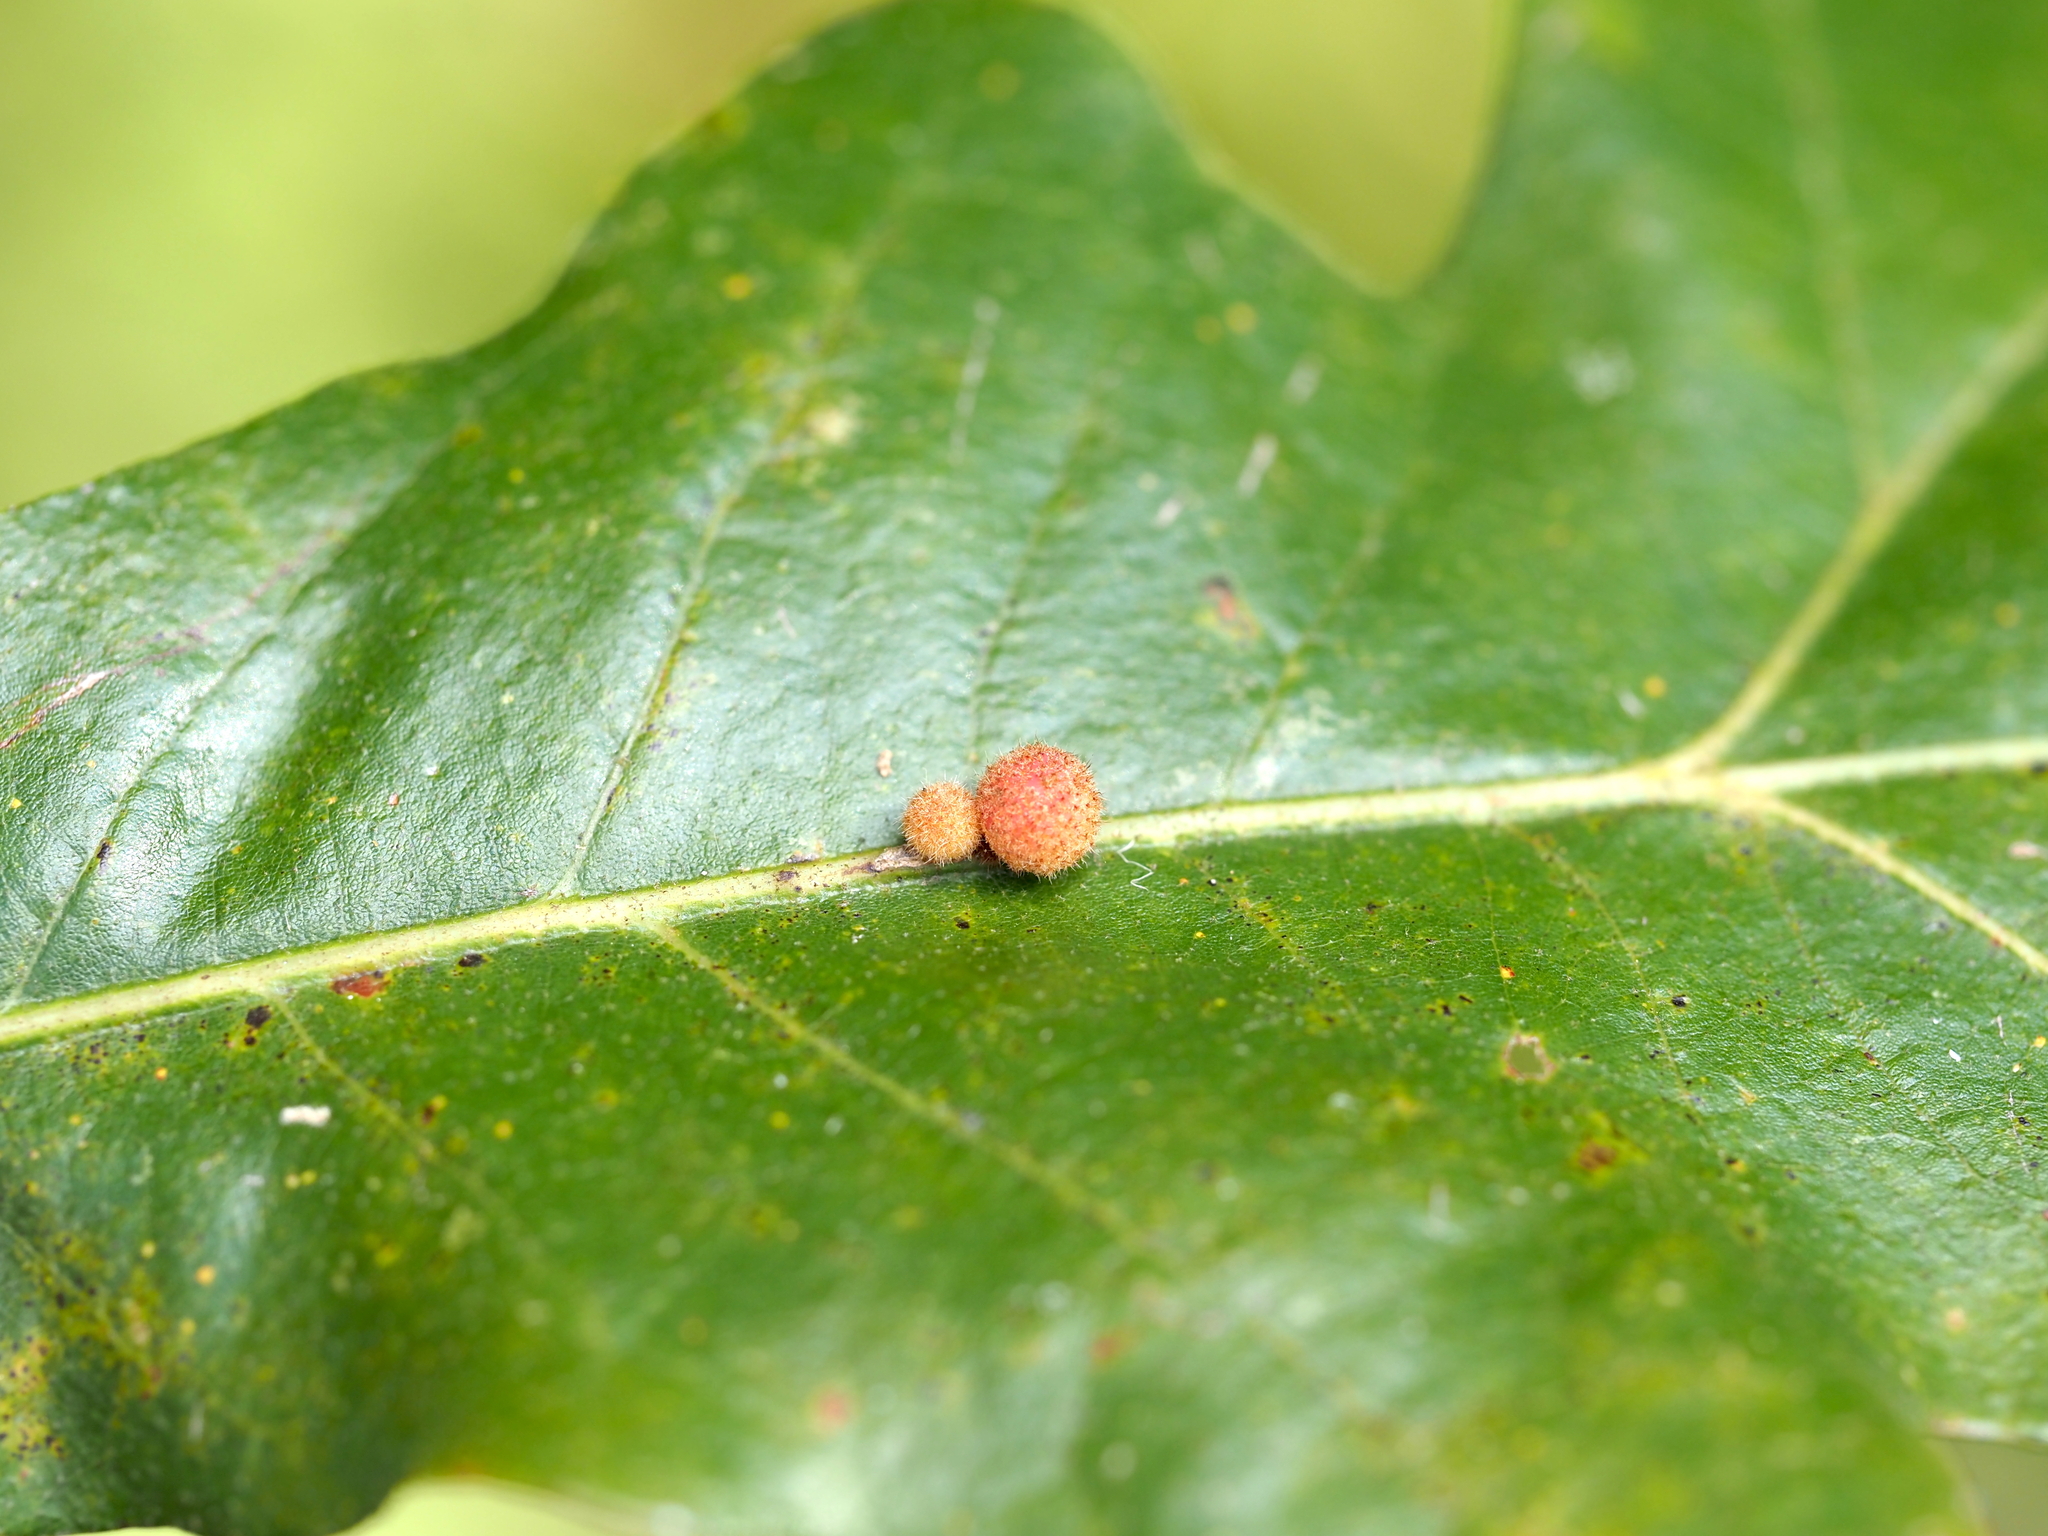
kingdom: Animalia
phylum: Arthropoda
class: Insecta
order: Hymenoptera
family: Cynipidae
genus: Biorhiza
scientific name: Biorhiza Sphaeroteras carolina
